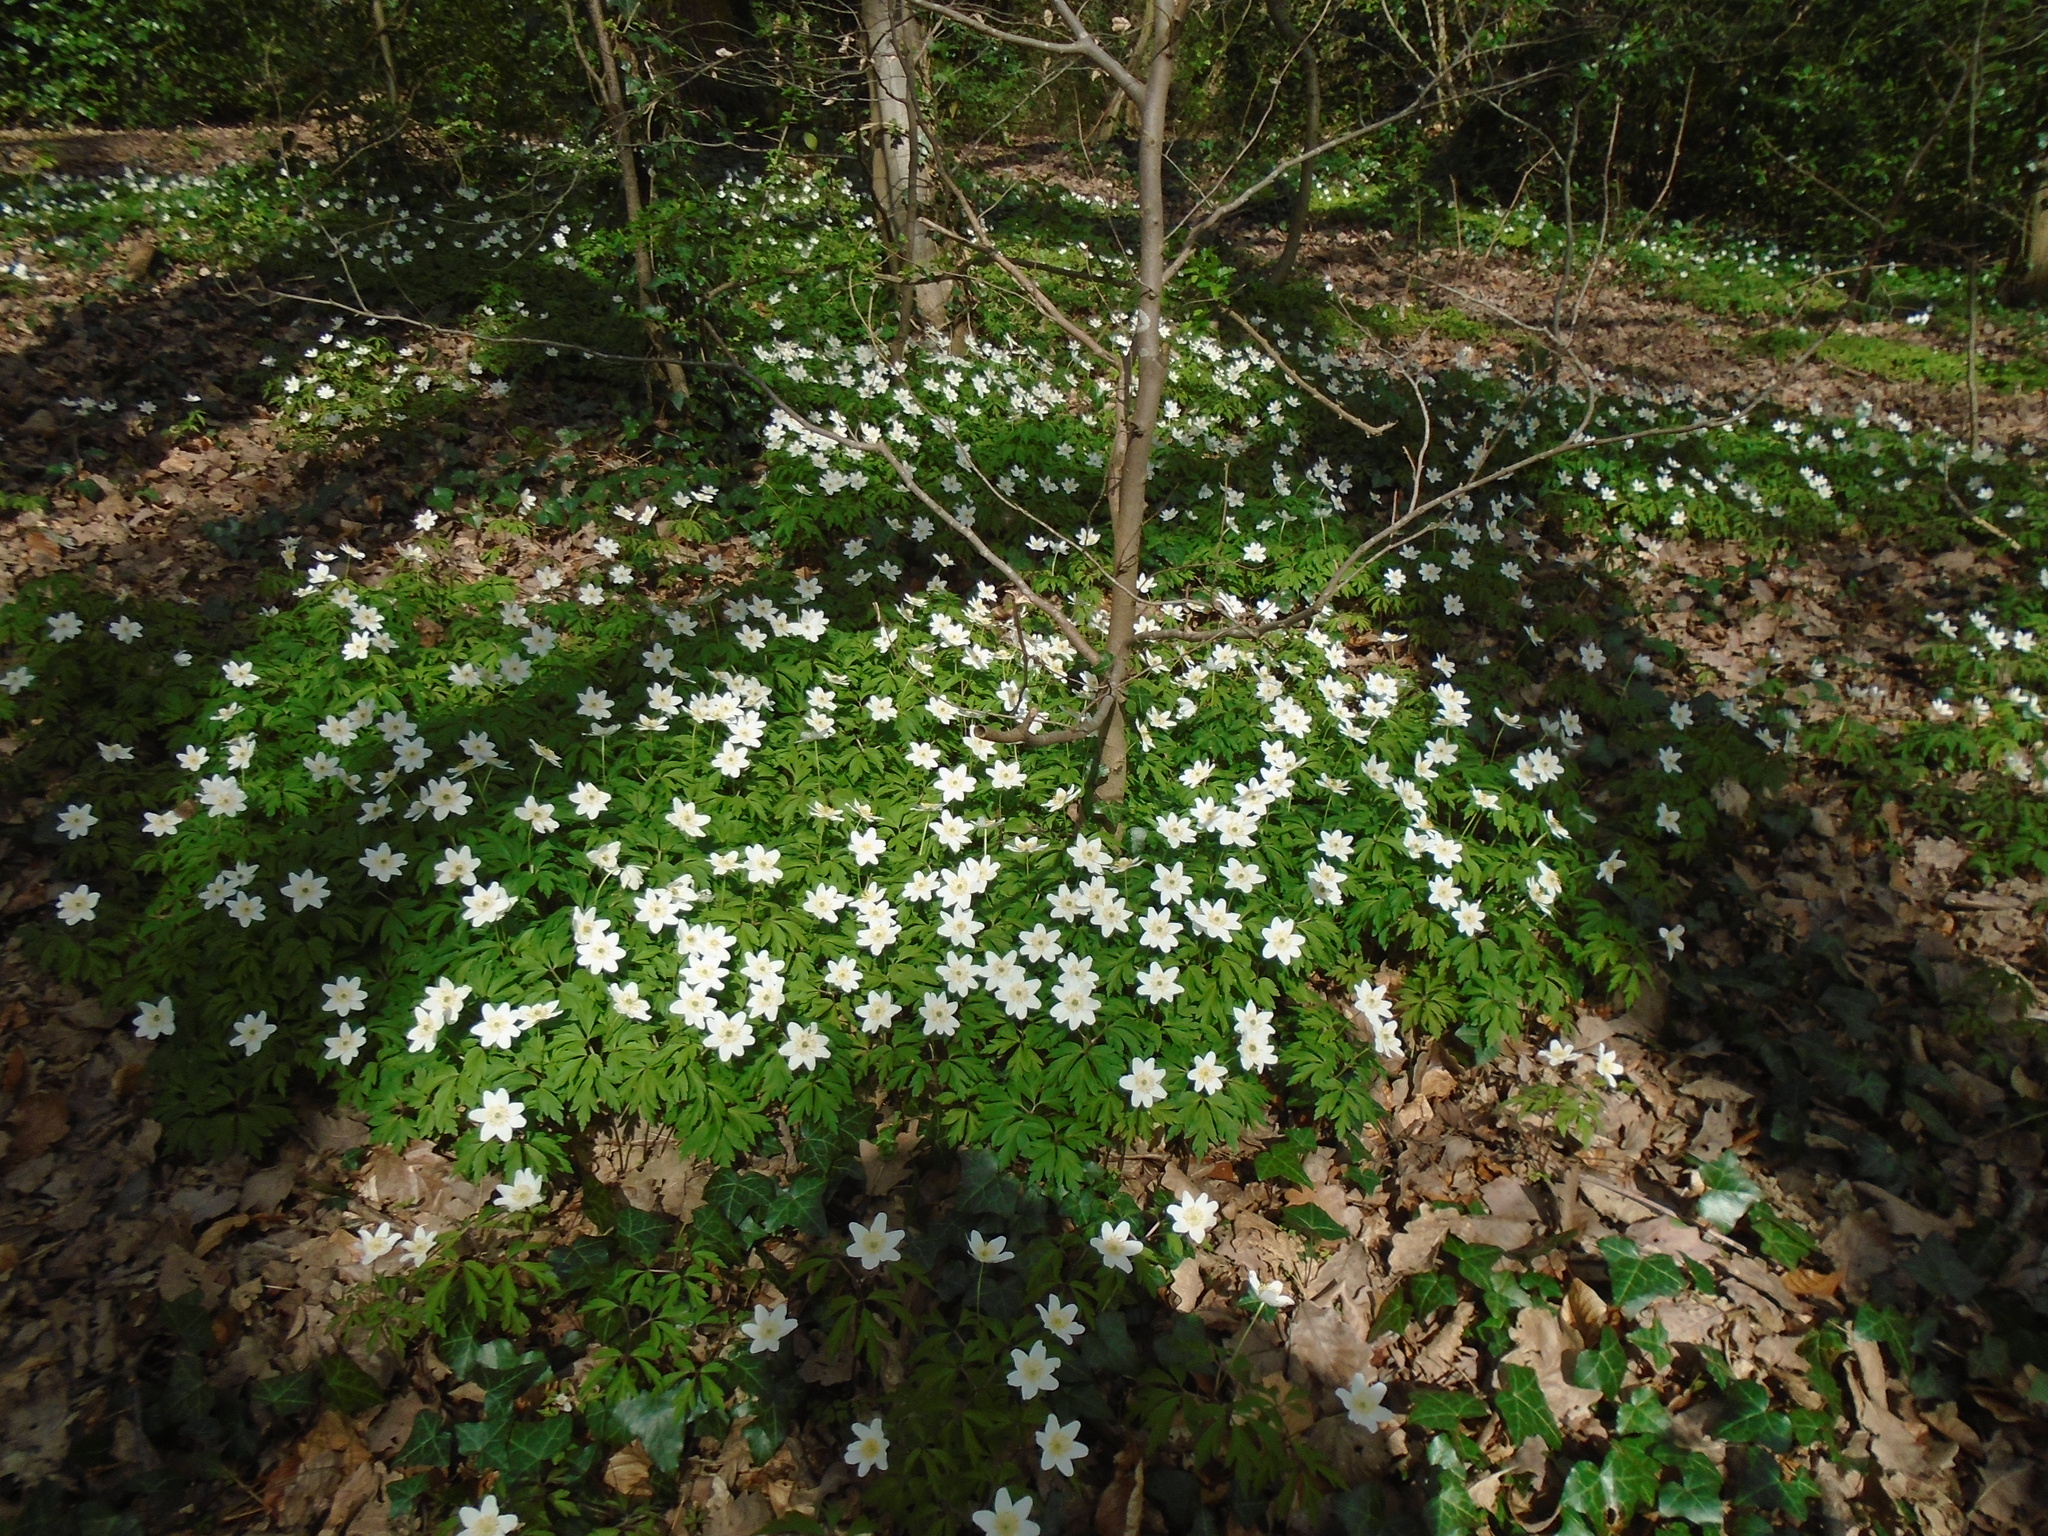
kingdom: Plantae
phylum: Tracheophyta
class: Magnoliopsida
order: Ranunculales
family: Ranunculaceae
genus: Anemone
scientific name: Anemone nemorosa
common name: Wood anemone
